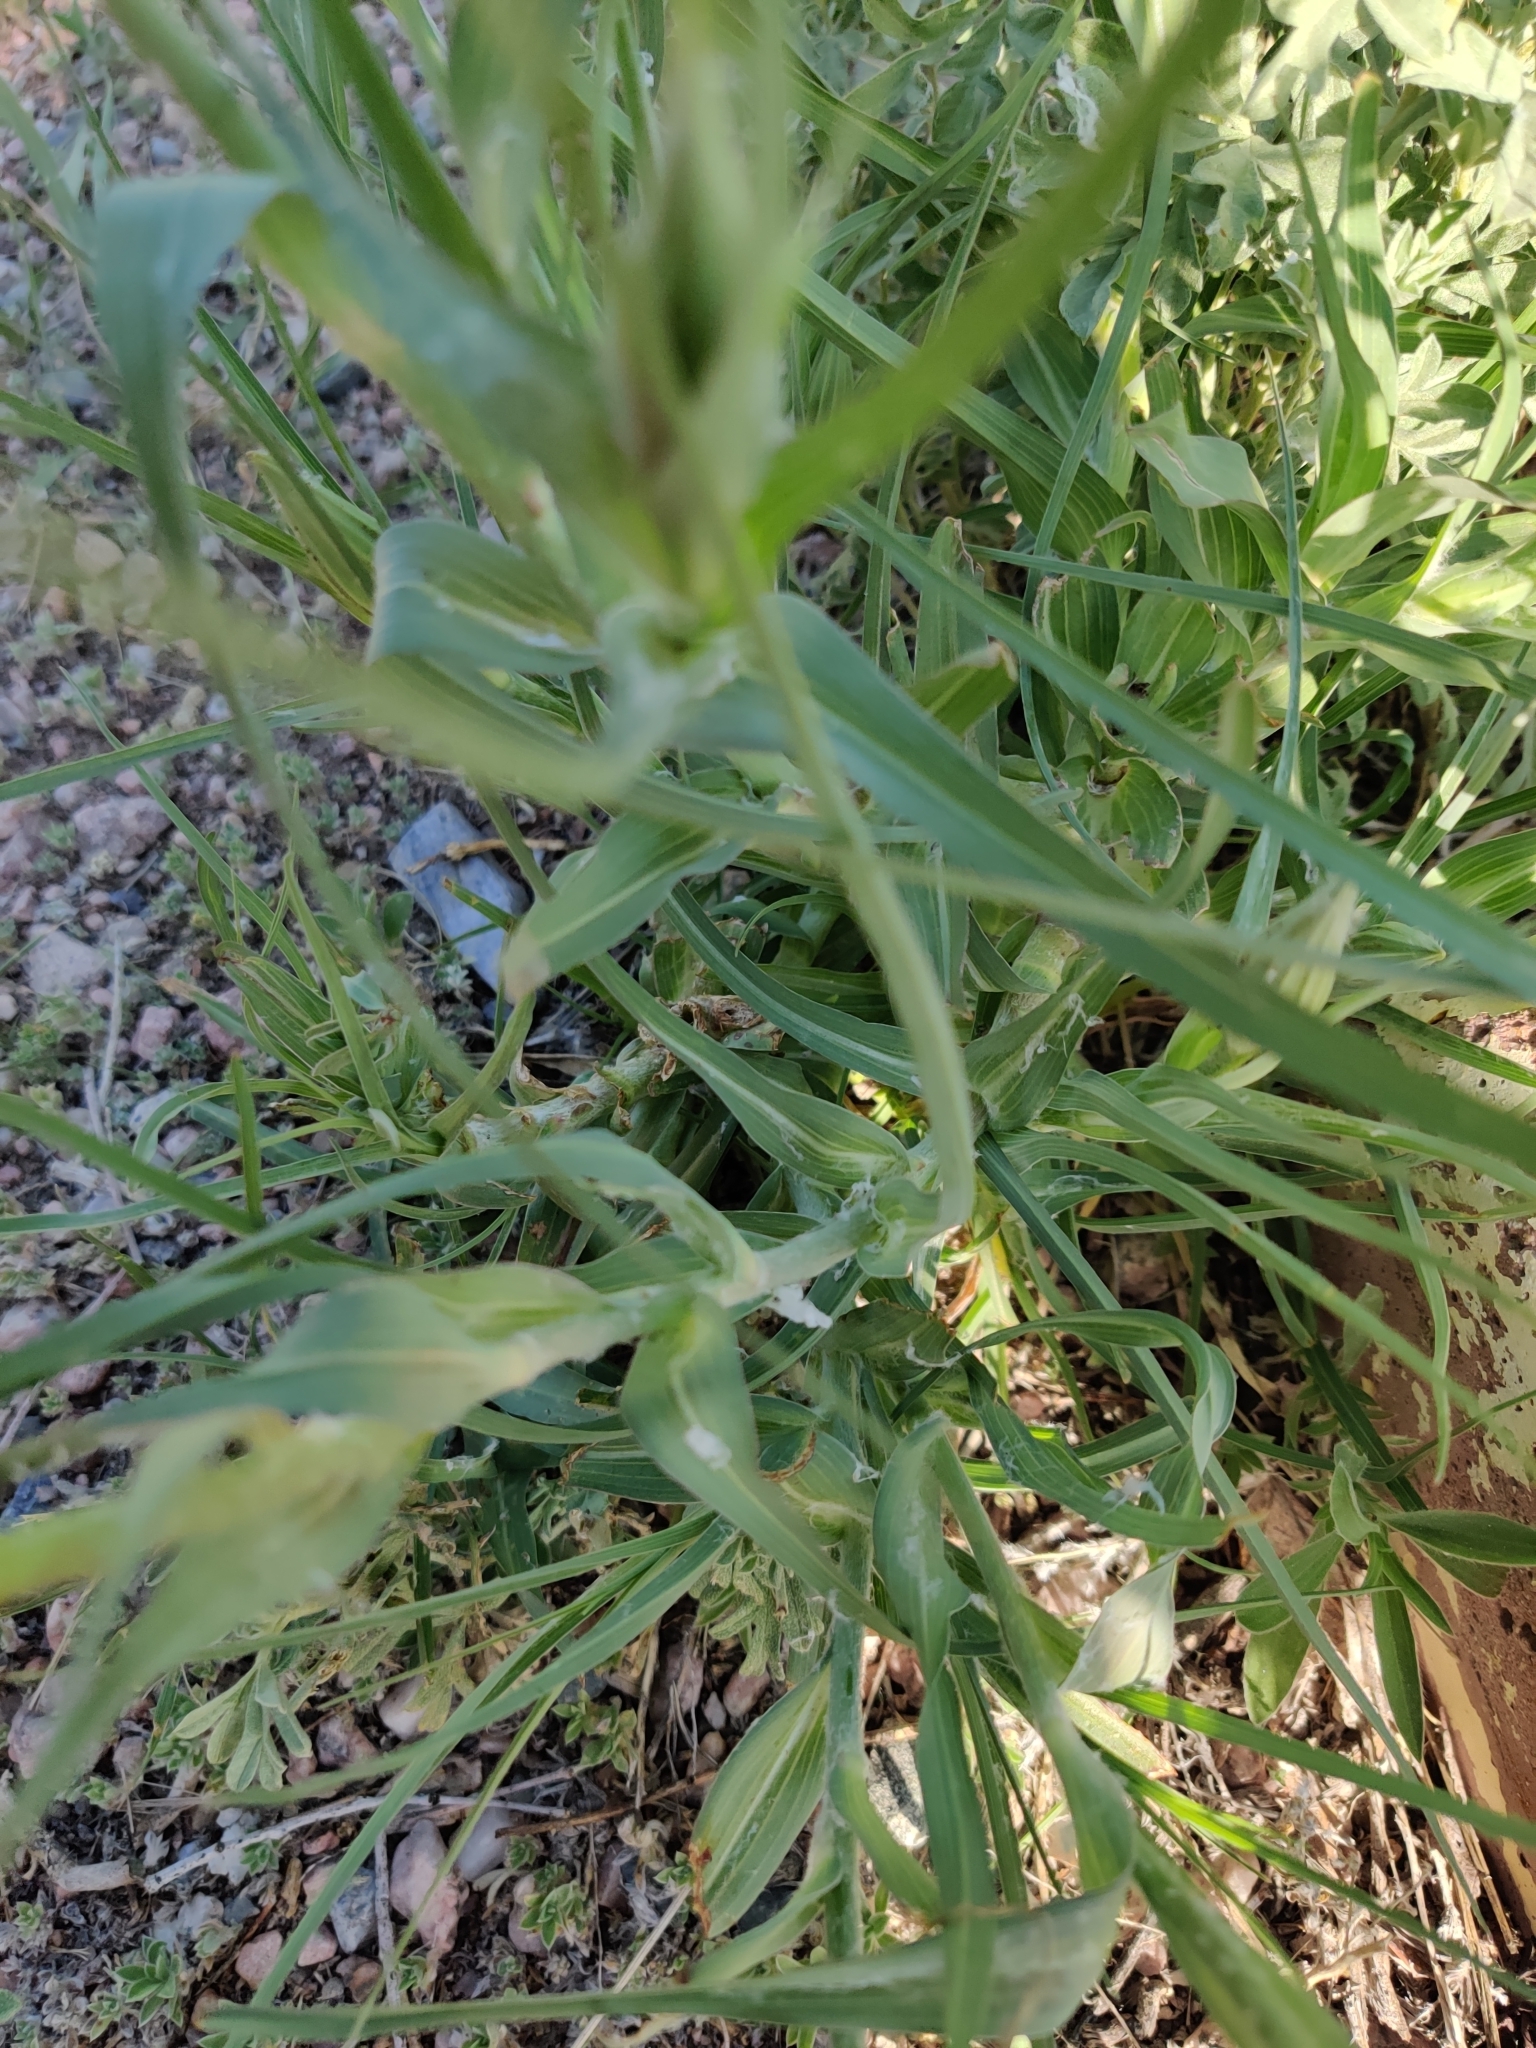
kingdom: Plantae
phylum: Tracheophyta
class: Magnoliopsida
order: Asterales
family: Asteraceae
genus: Tragopogon
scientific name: Tragopogon dubius
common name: Yellow salsify
